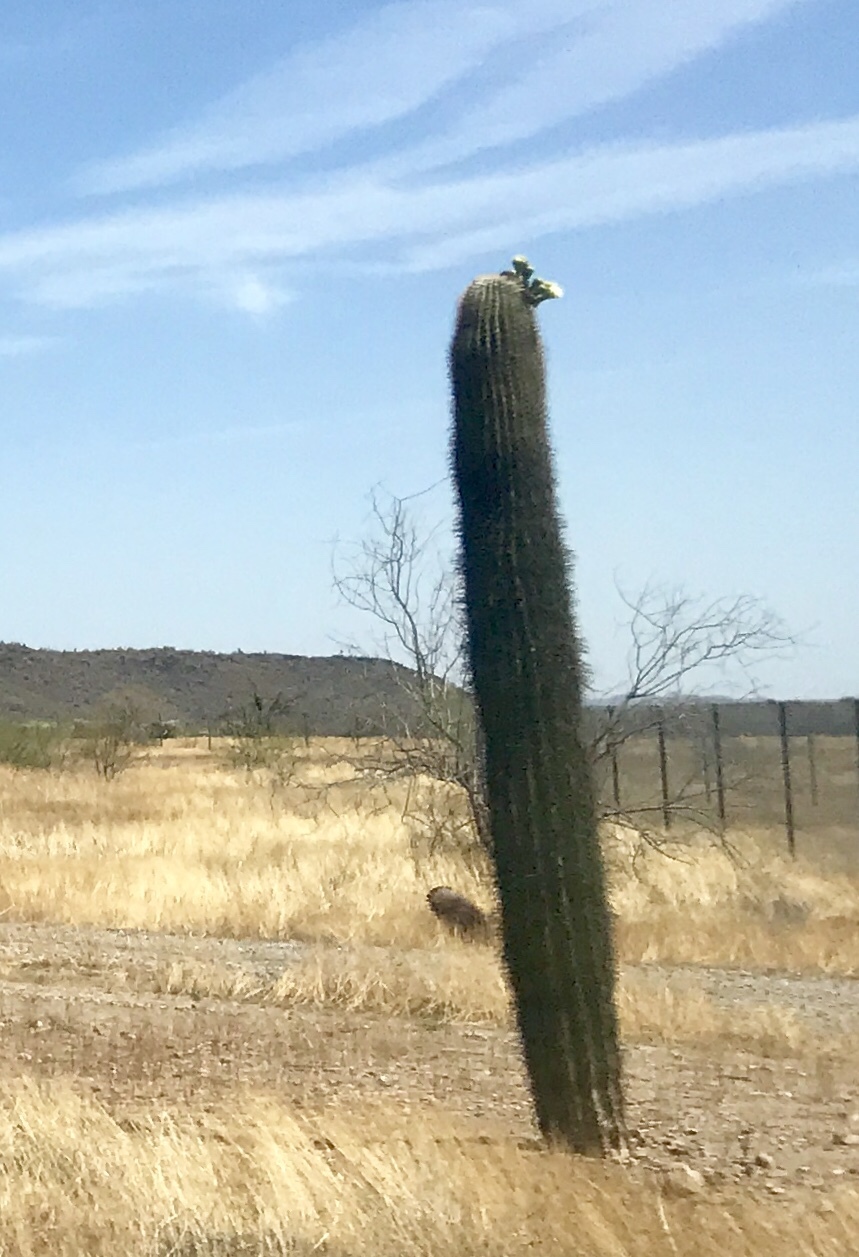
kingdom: Plantae
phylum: Tracheophyta
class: Magnoliopsida
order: Caryophyllales
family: Cactaceae
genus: Carnegiea
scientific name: Carnegiea gigantea
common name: Saguaro
